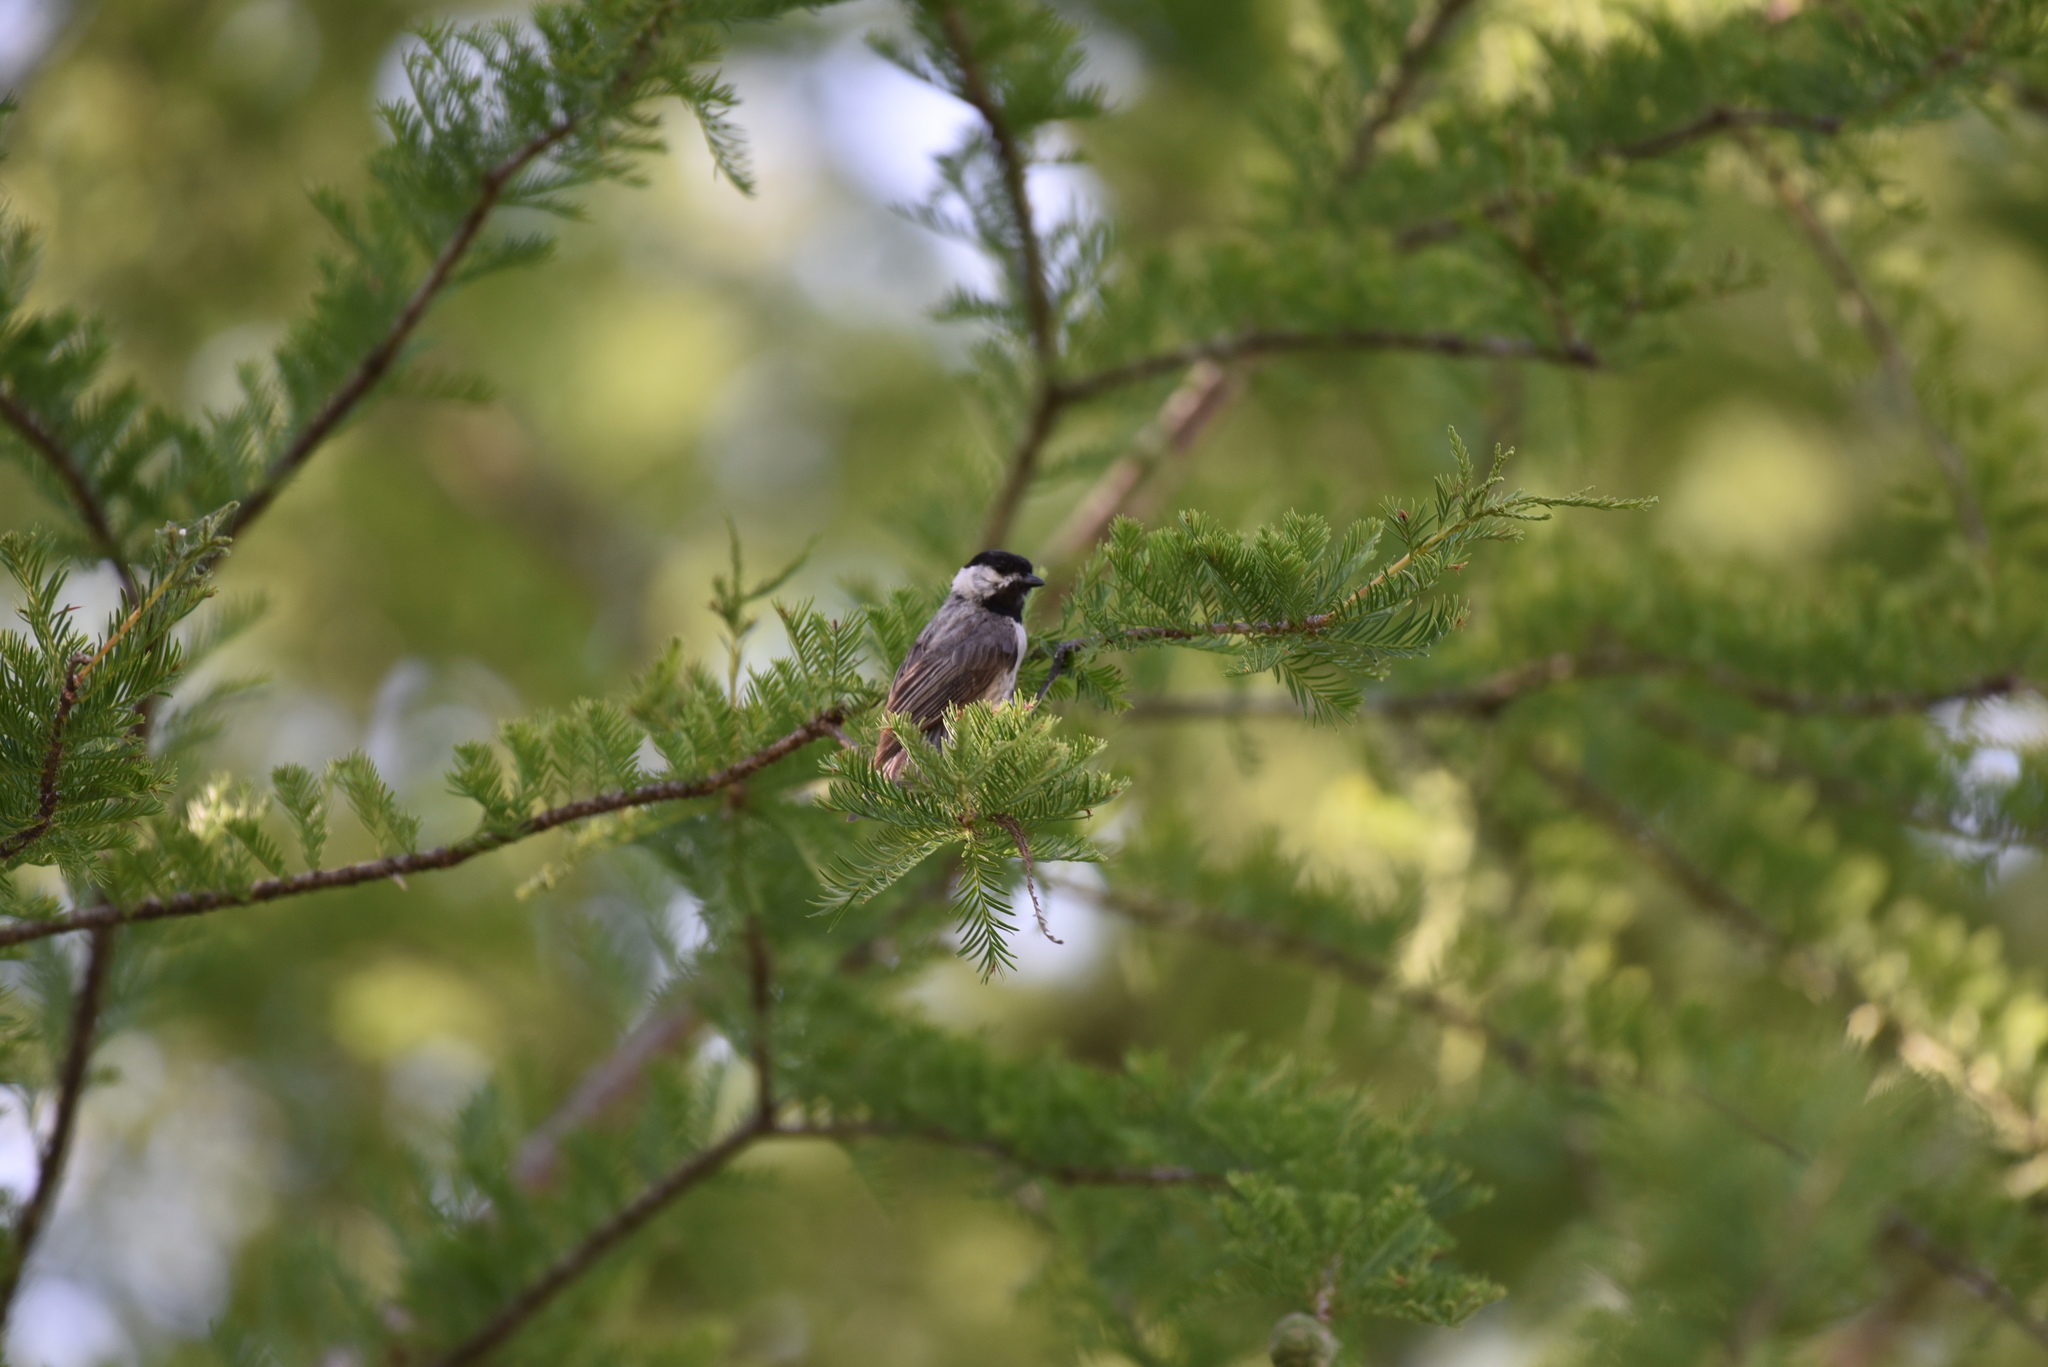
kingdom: Animalia
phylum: Chordata
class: Aves
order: Passeriformes
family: Paridae
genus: Poecile
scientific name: Poecile carolinensis
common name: Carolina chickadee
